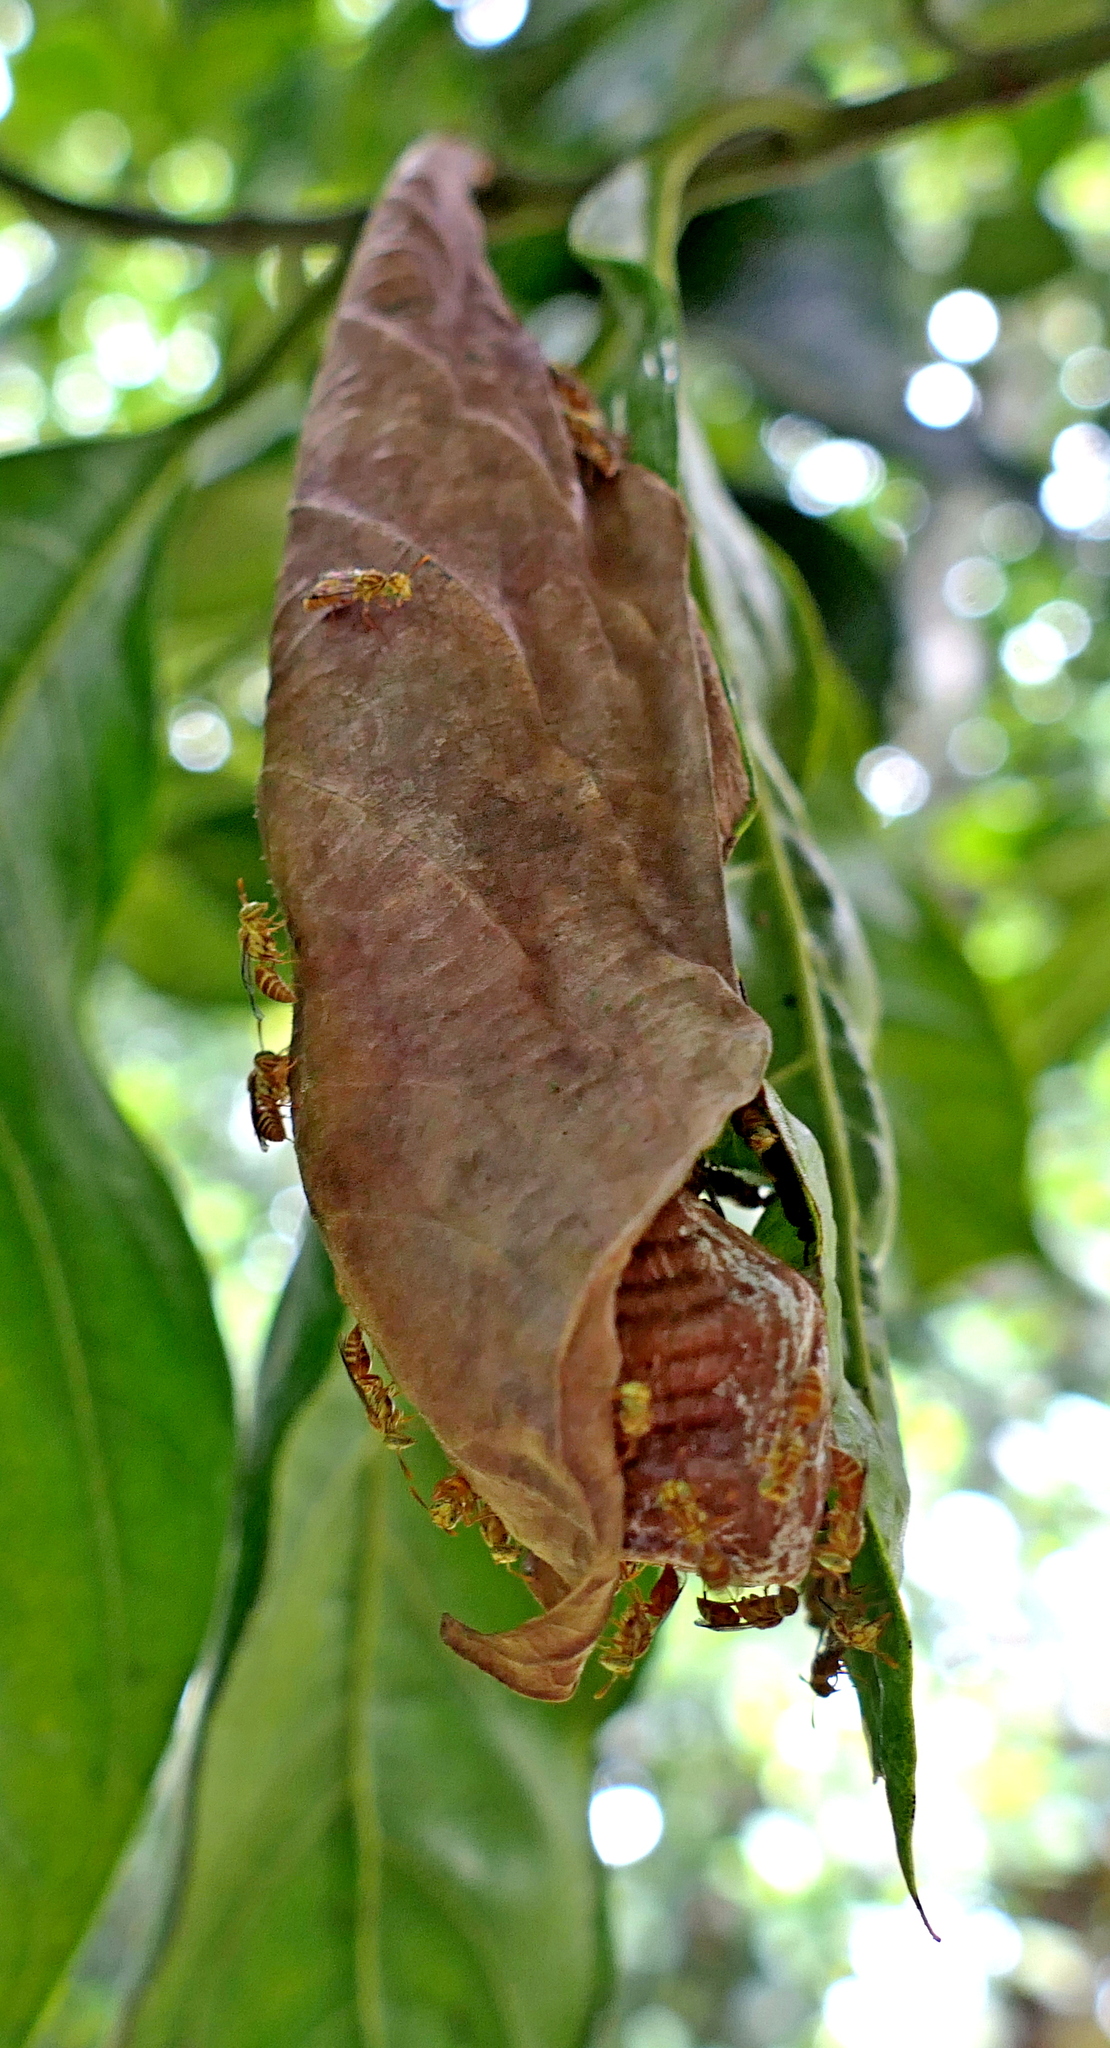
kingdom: Animalia
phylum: Arthropoda
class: Insecta
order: Hymenoptera
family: Vespidae
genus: Protopolybia
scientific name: Protopolybia potiguara
